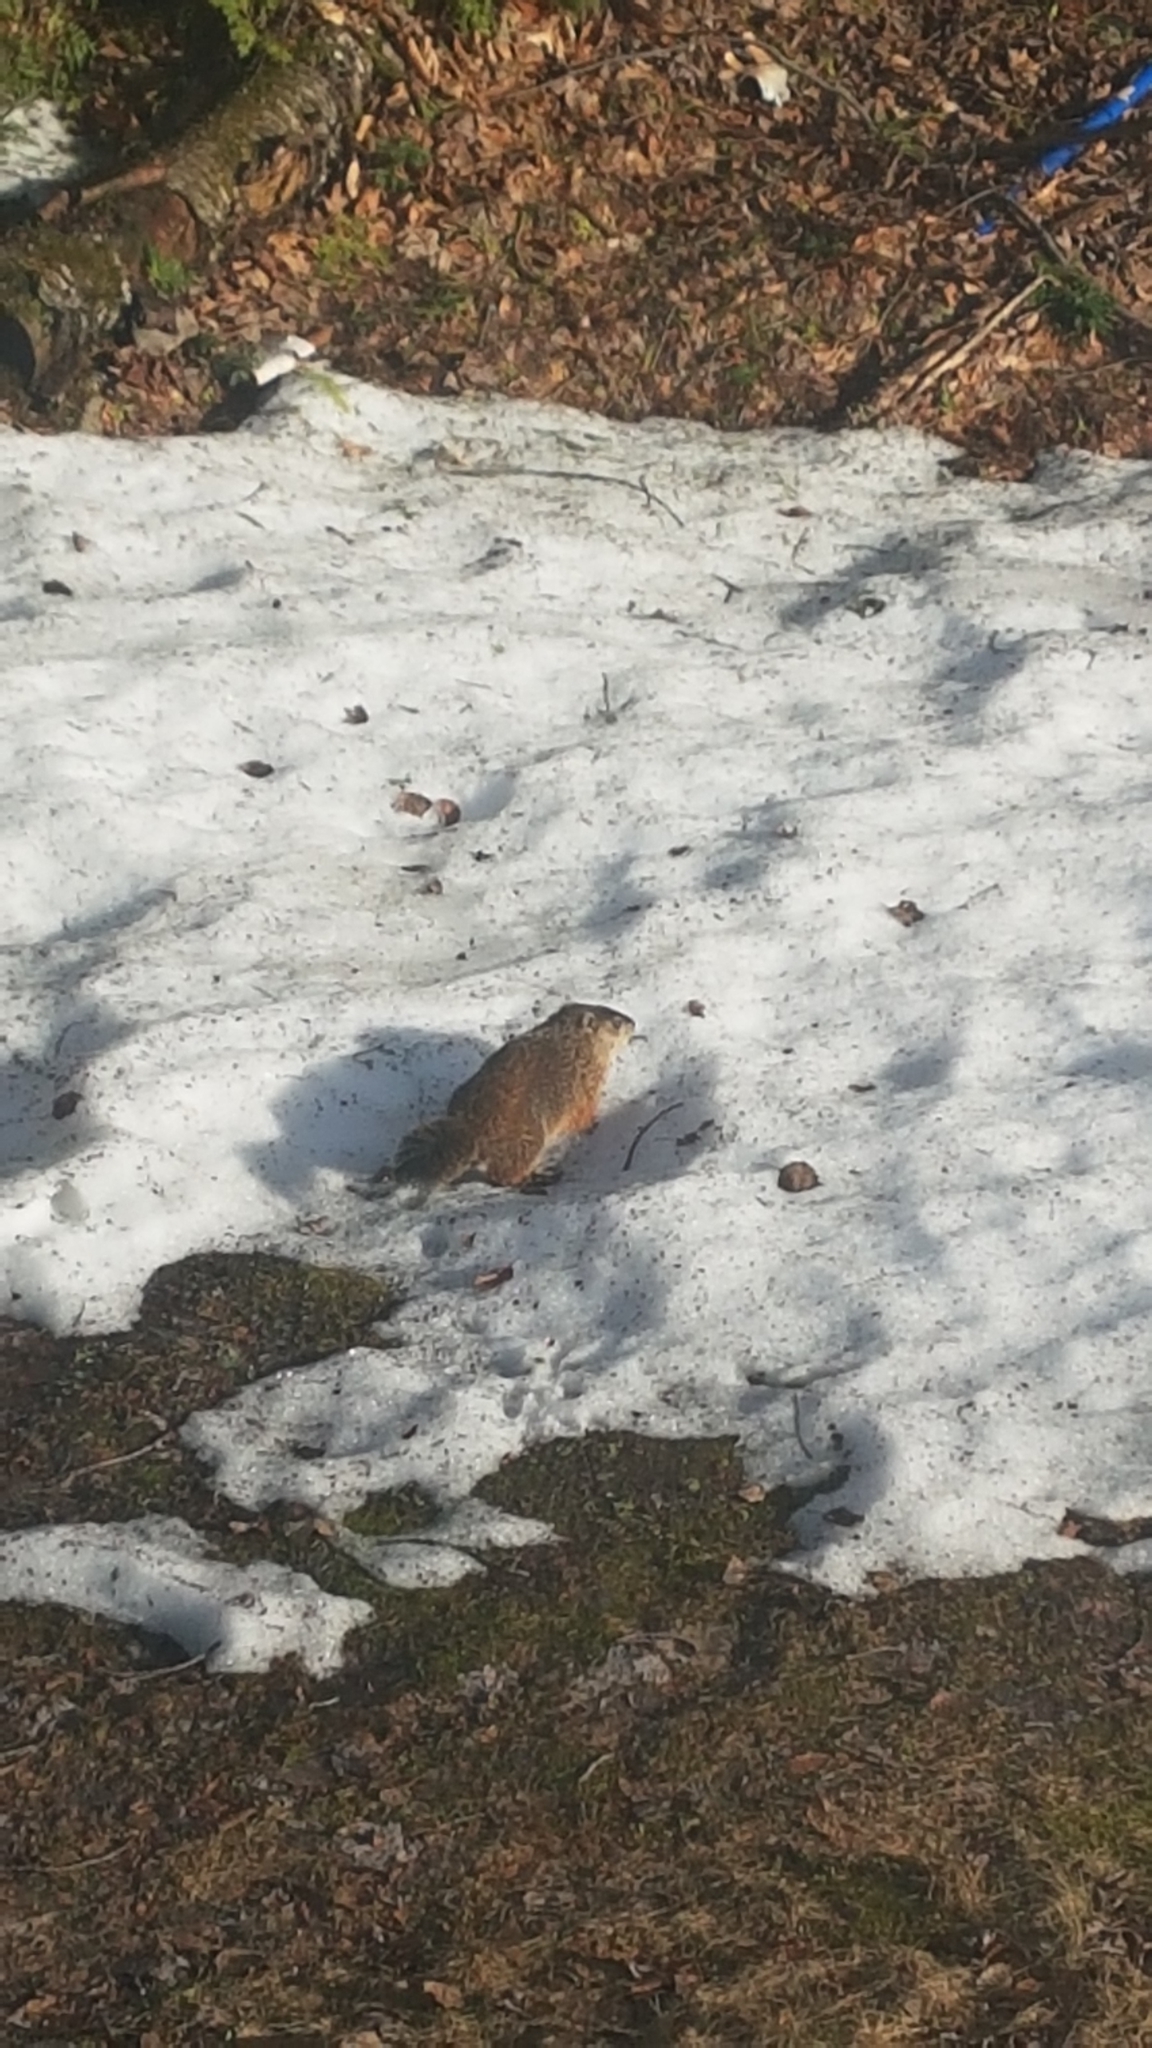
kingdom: Animalia
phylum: Chordata
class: Mammalia
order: Rodentia
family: Sciuridae
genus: Marmota
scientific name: Marmota monax
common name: Groundhog
